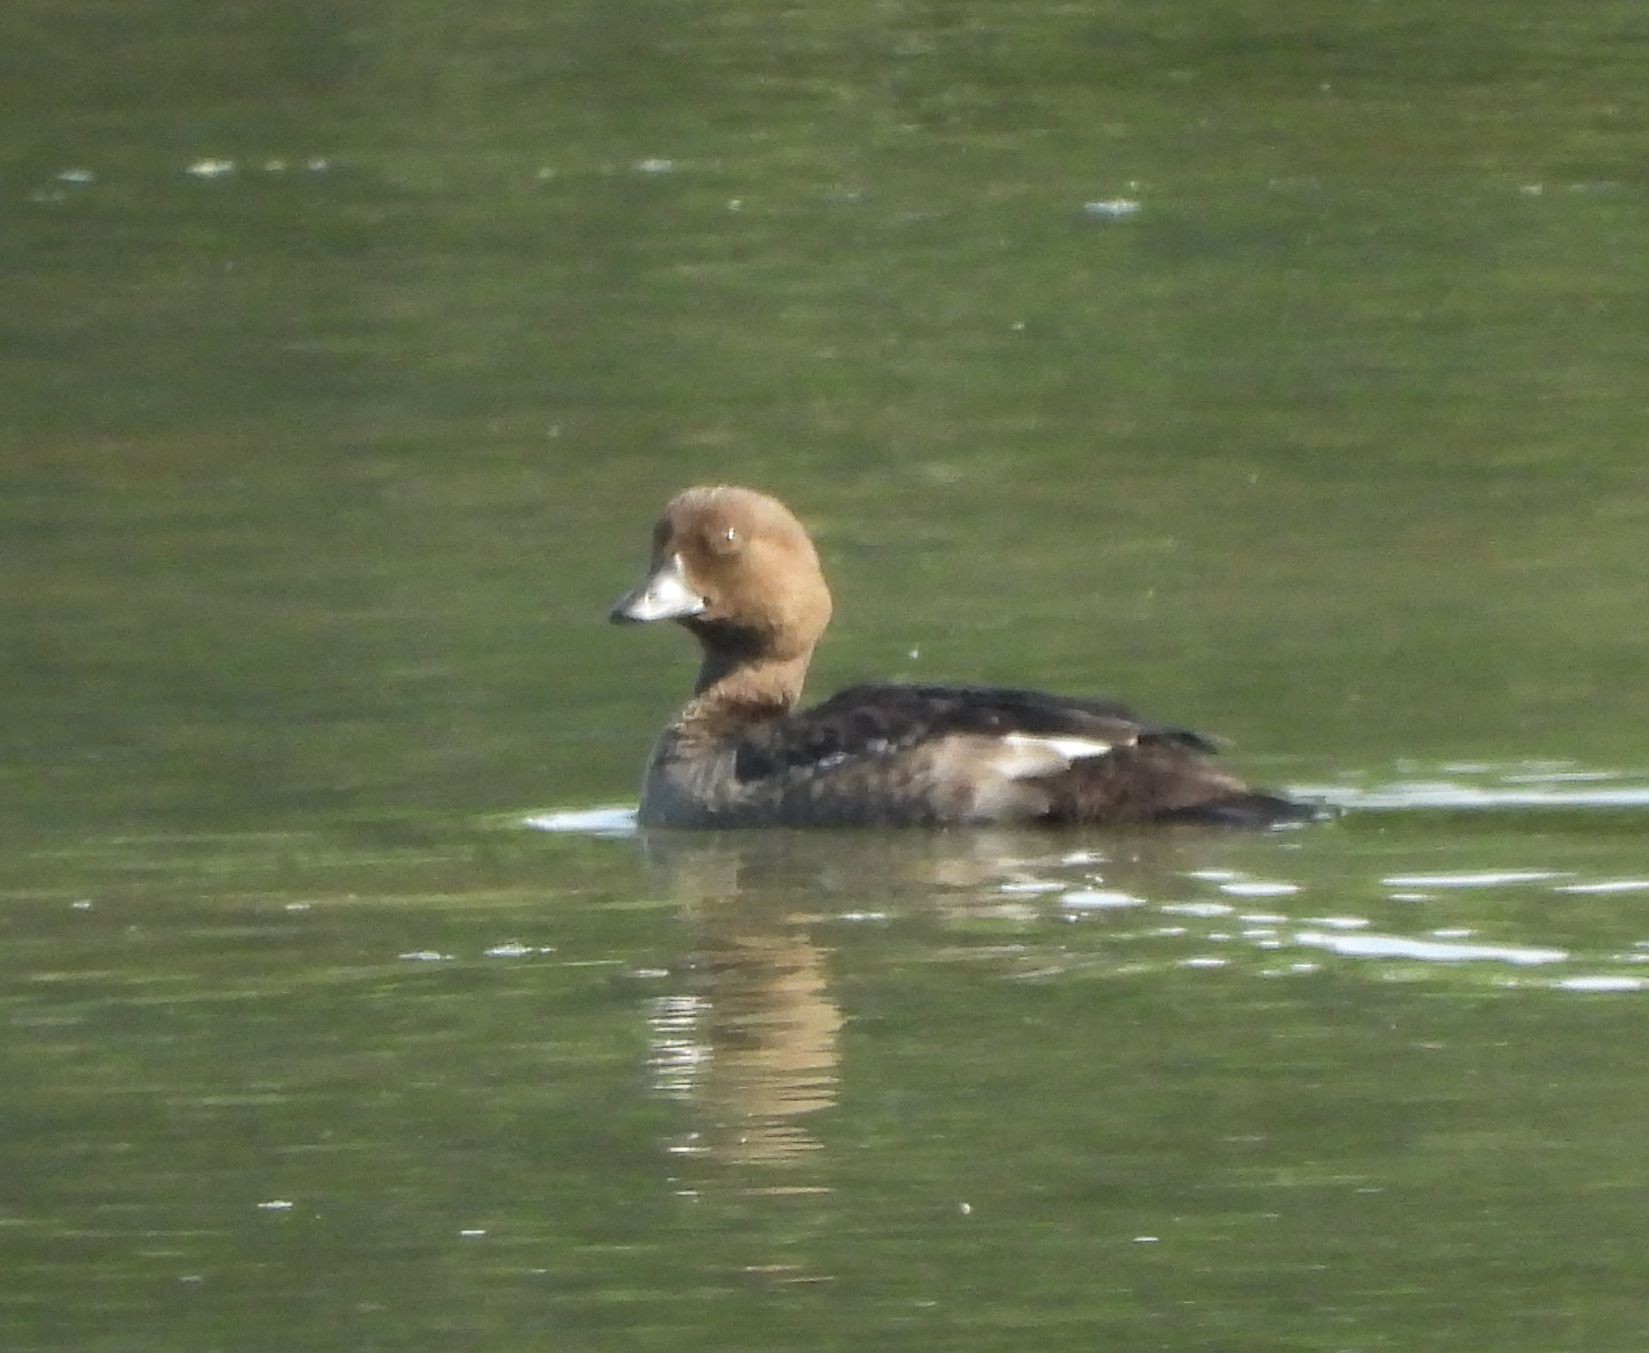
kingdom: Animalia
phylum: Chordata
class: Aves
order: Anseriformes
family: Anatidae
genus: Bucephala
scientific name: Bucephala clangula
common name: Common goldeneye
